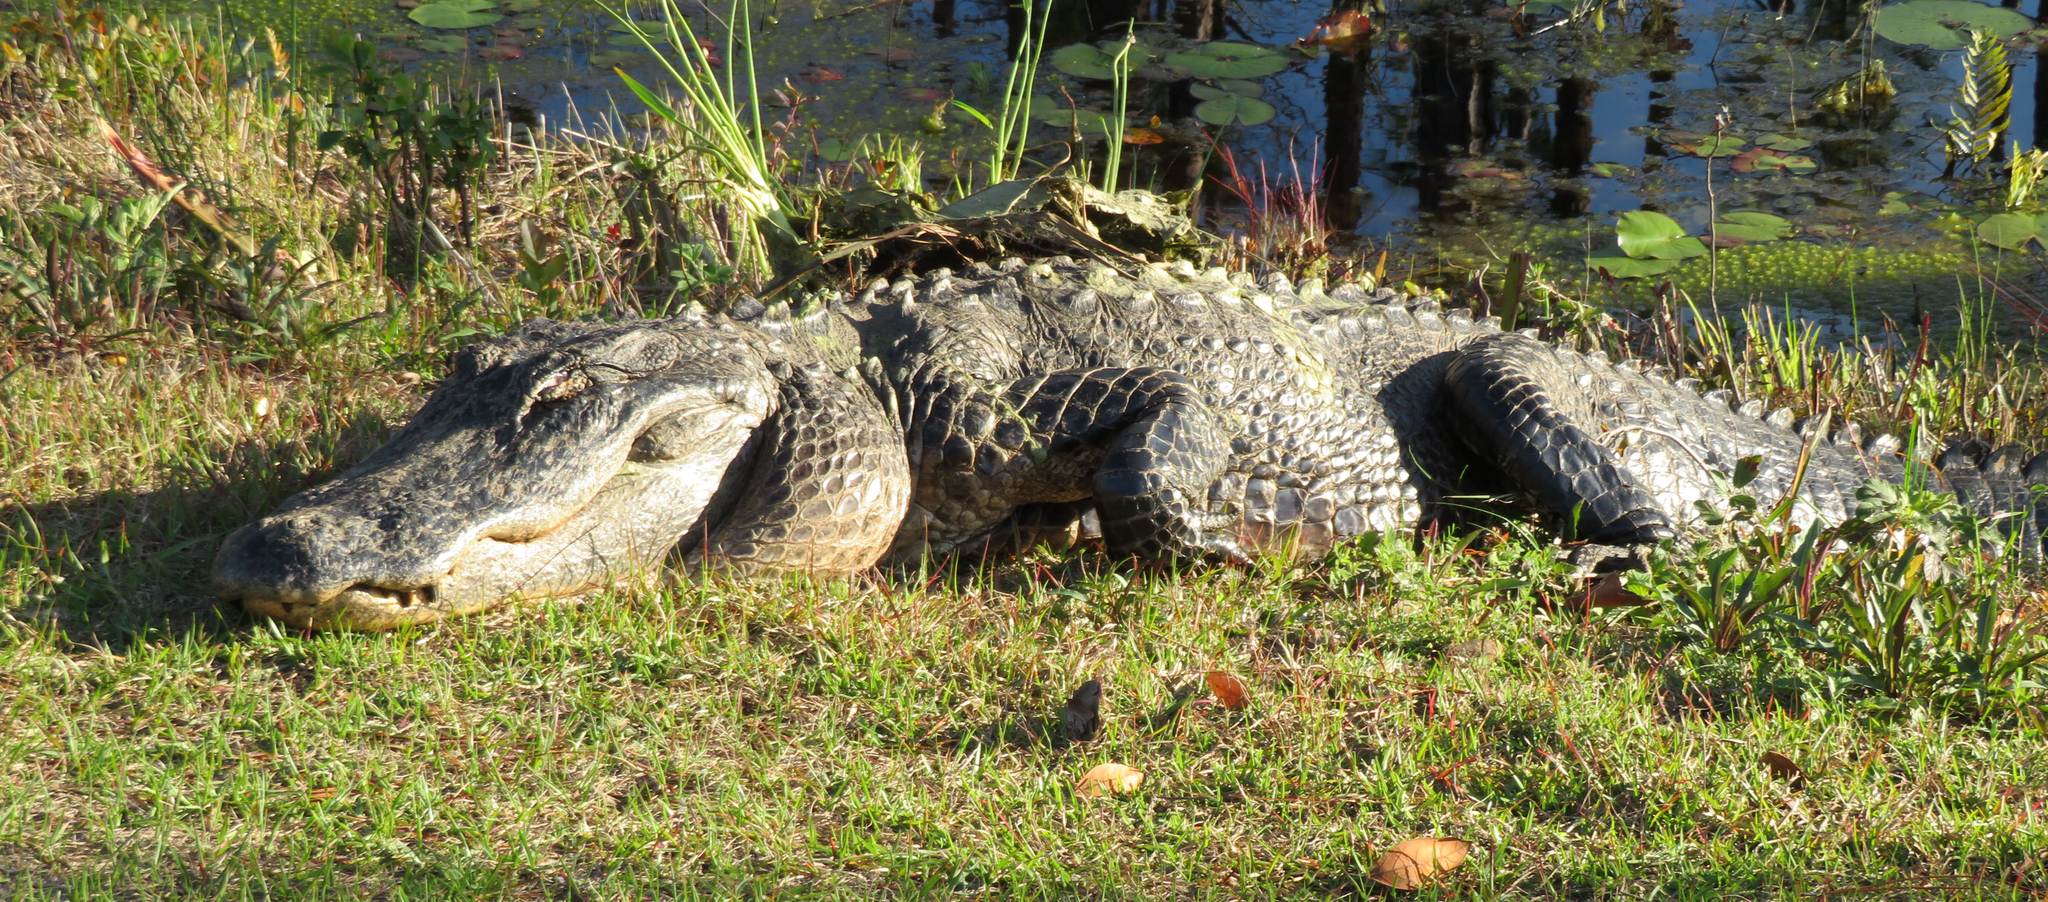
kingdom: Animalia
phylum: Chordata
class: Crocodylia
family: Alligatoridae
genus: Alligator
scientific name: Alligator mississippiensis
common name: American alligator
